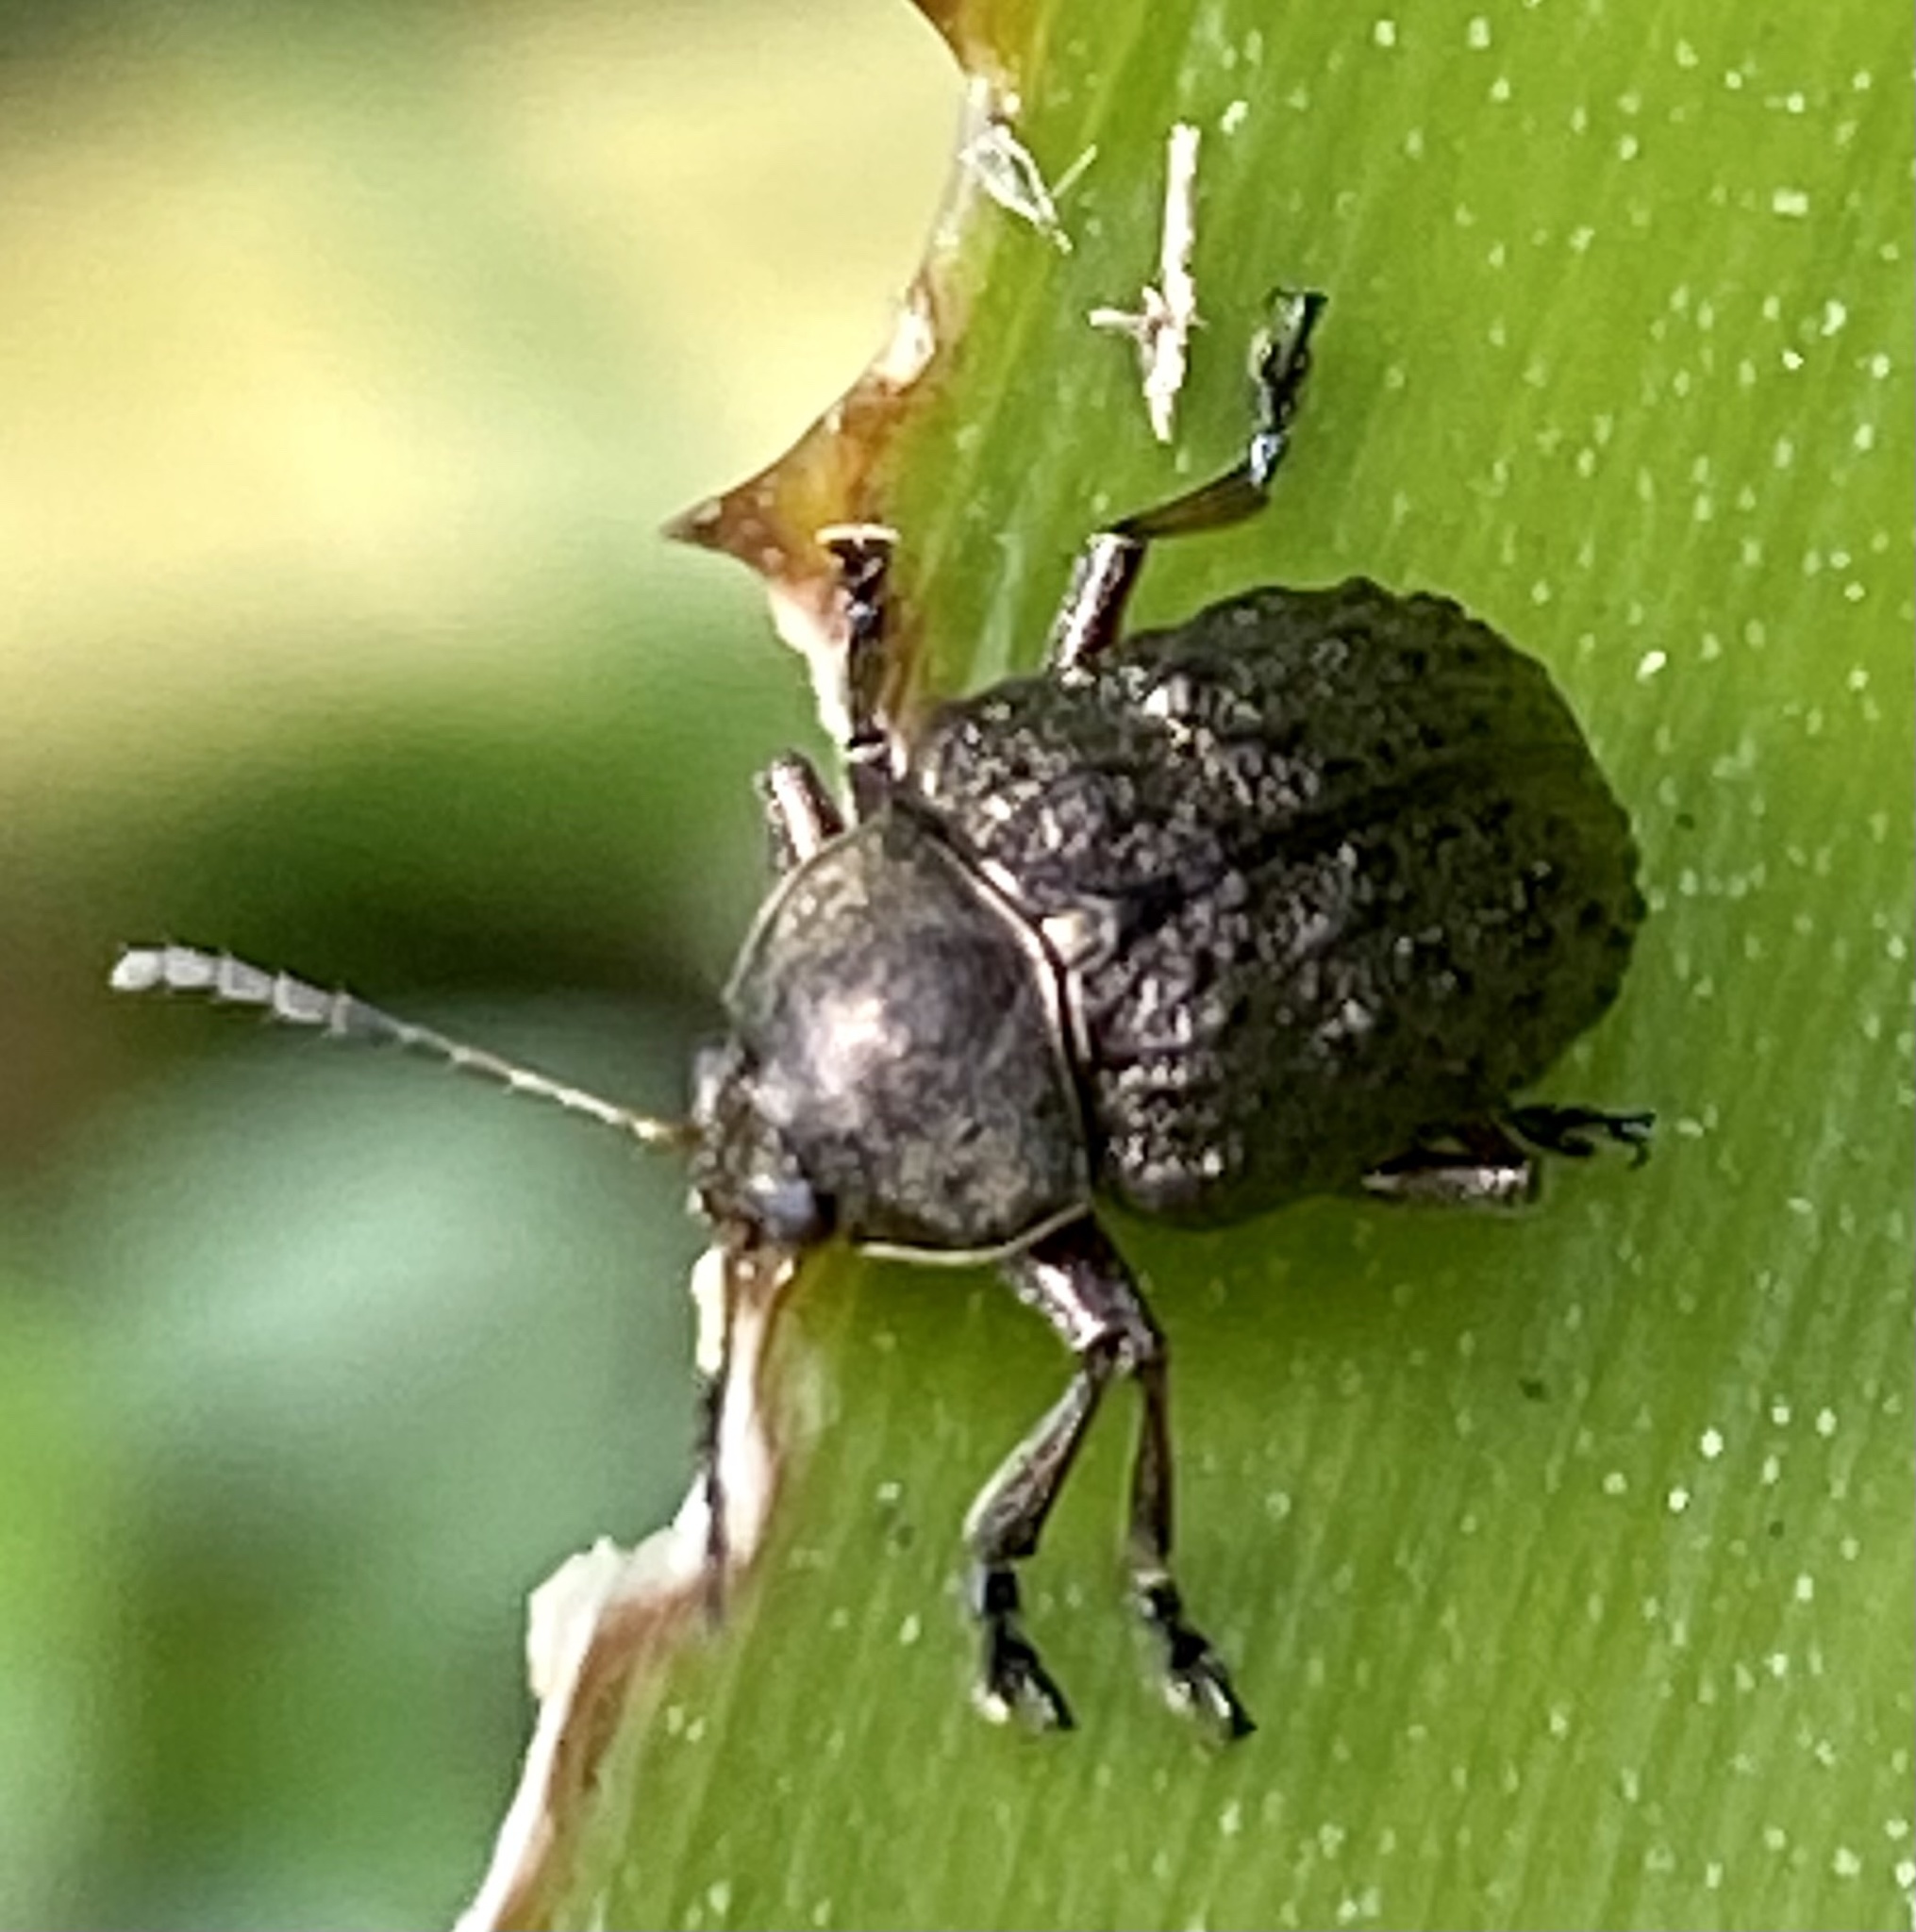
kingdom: Animalia
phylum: Arthropoda
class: Insecta
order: Coleoptera
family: Chrysomelidae
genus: Lepronota
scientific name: Lepronota
